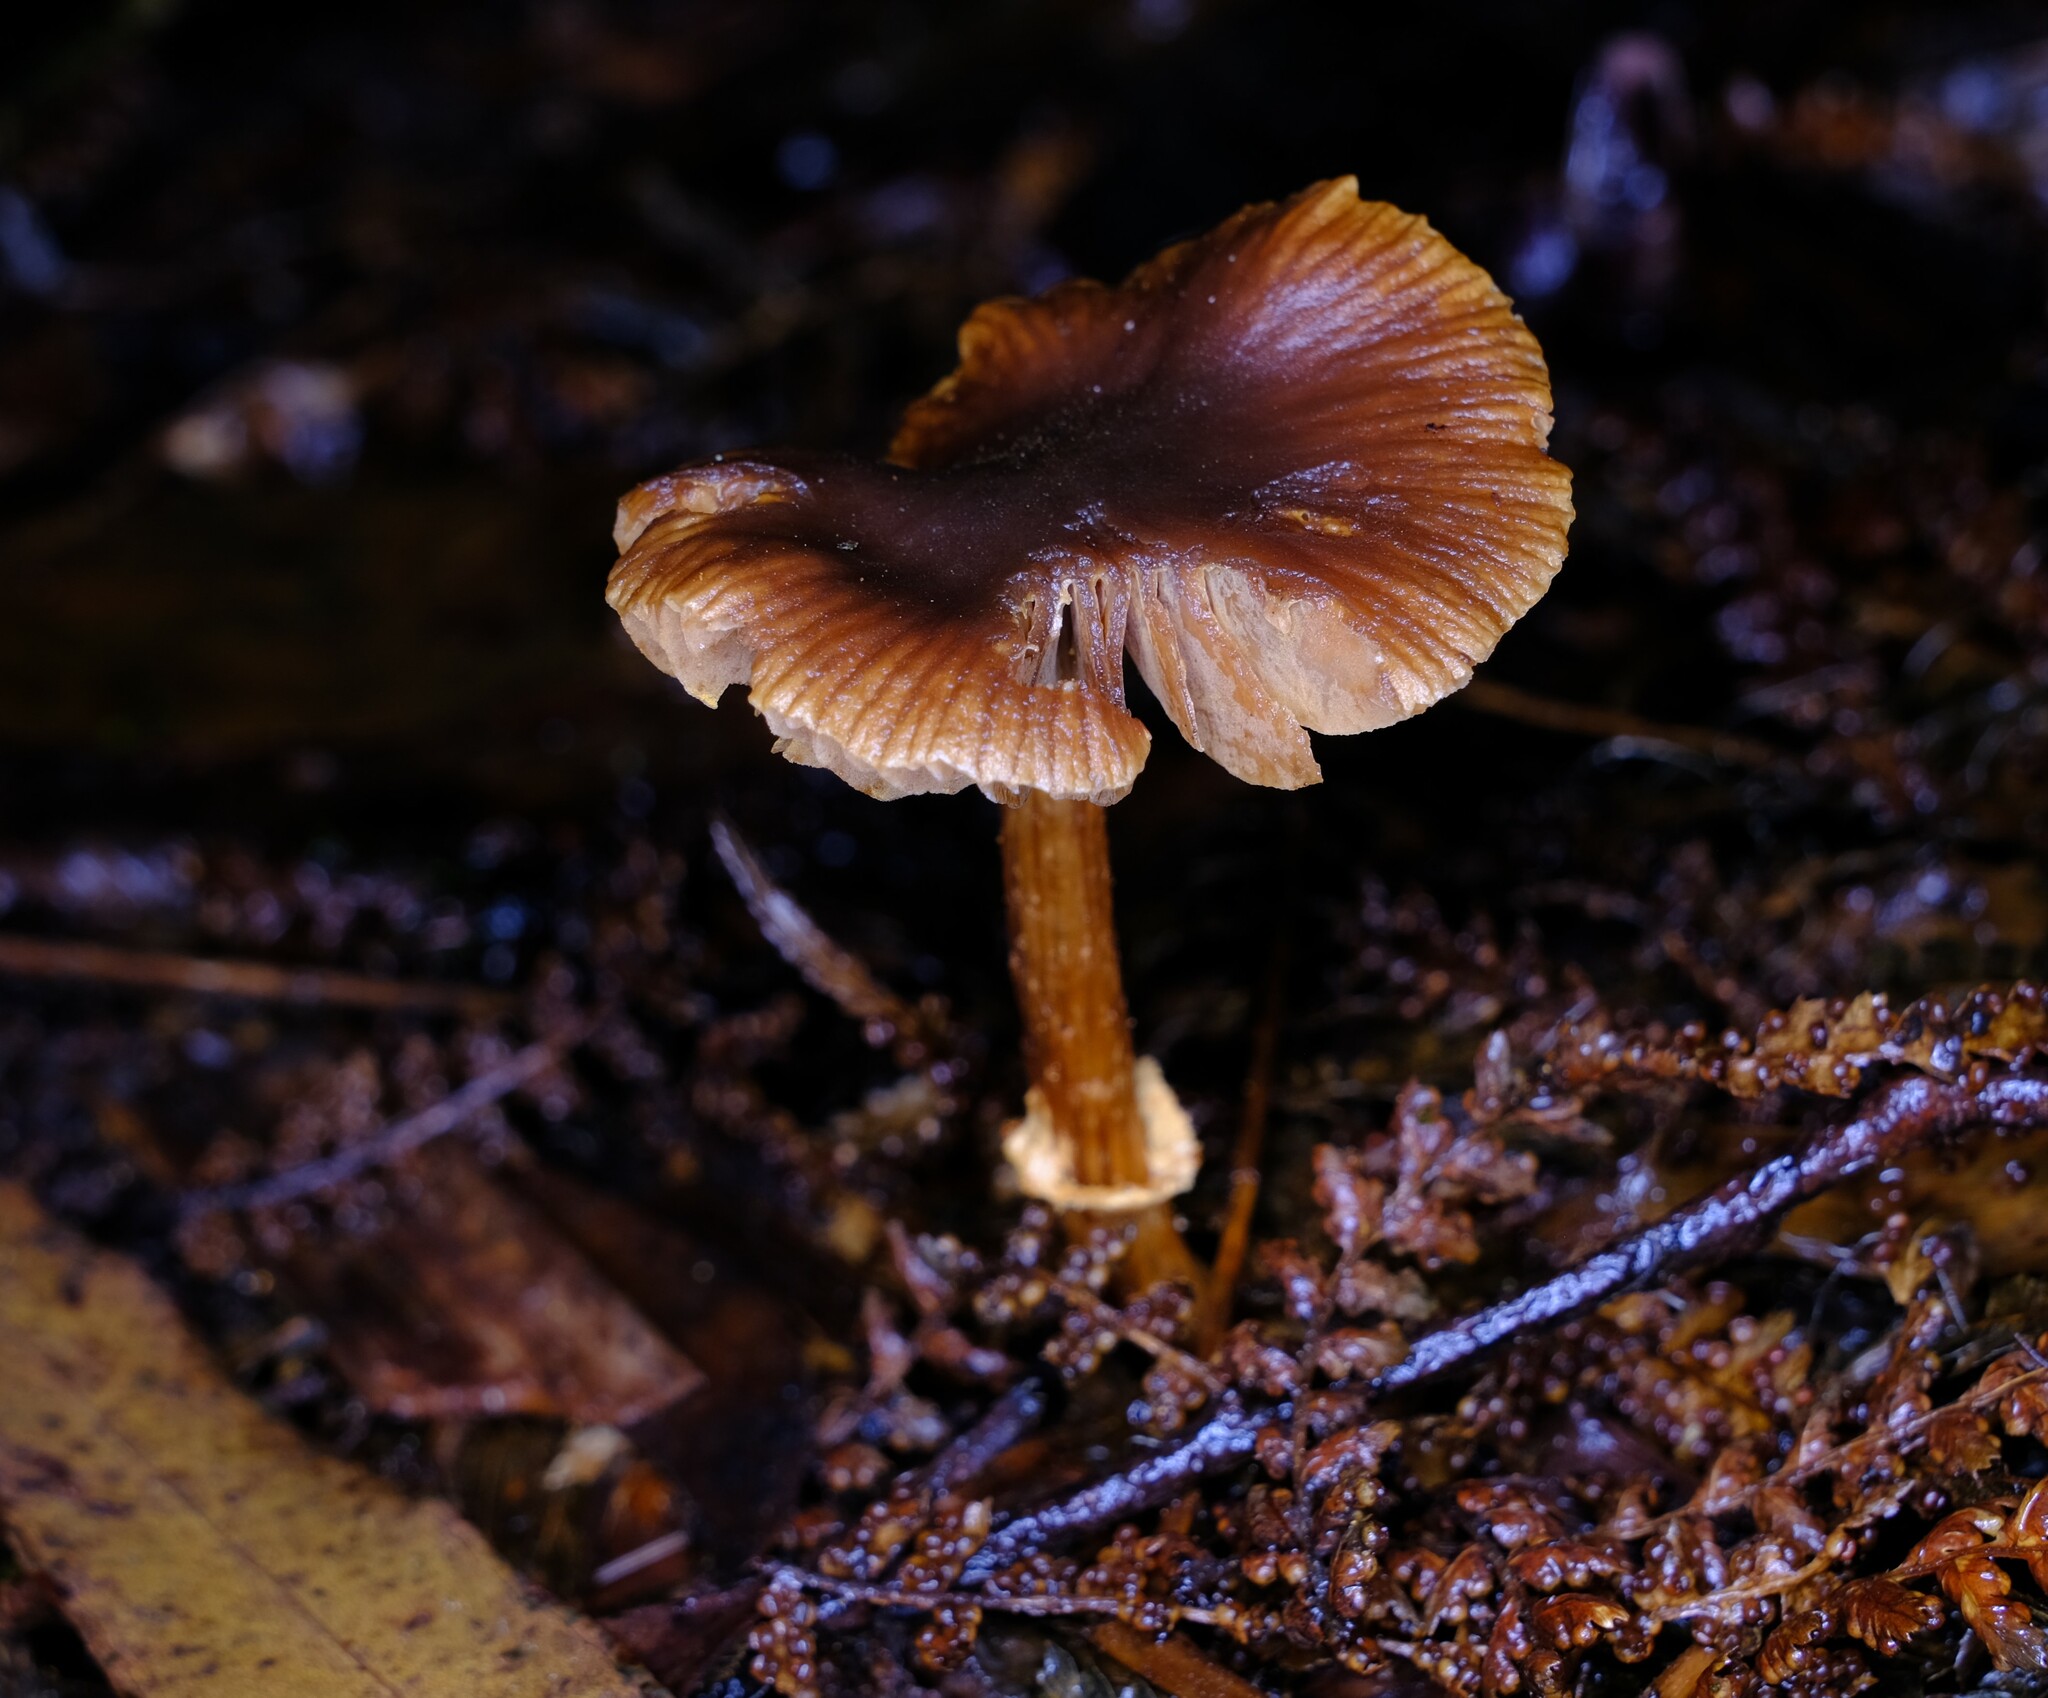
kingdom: Fungi
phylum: Basidiomycota
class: Agaricomycetes
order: Agaricales
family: Bolbitiaceae
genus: Descolea
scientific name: Descolea recedens
